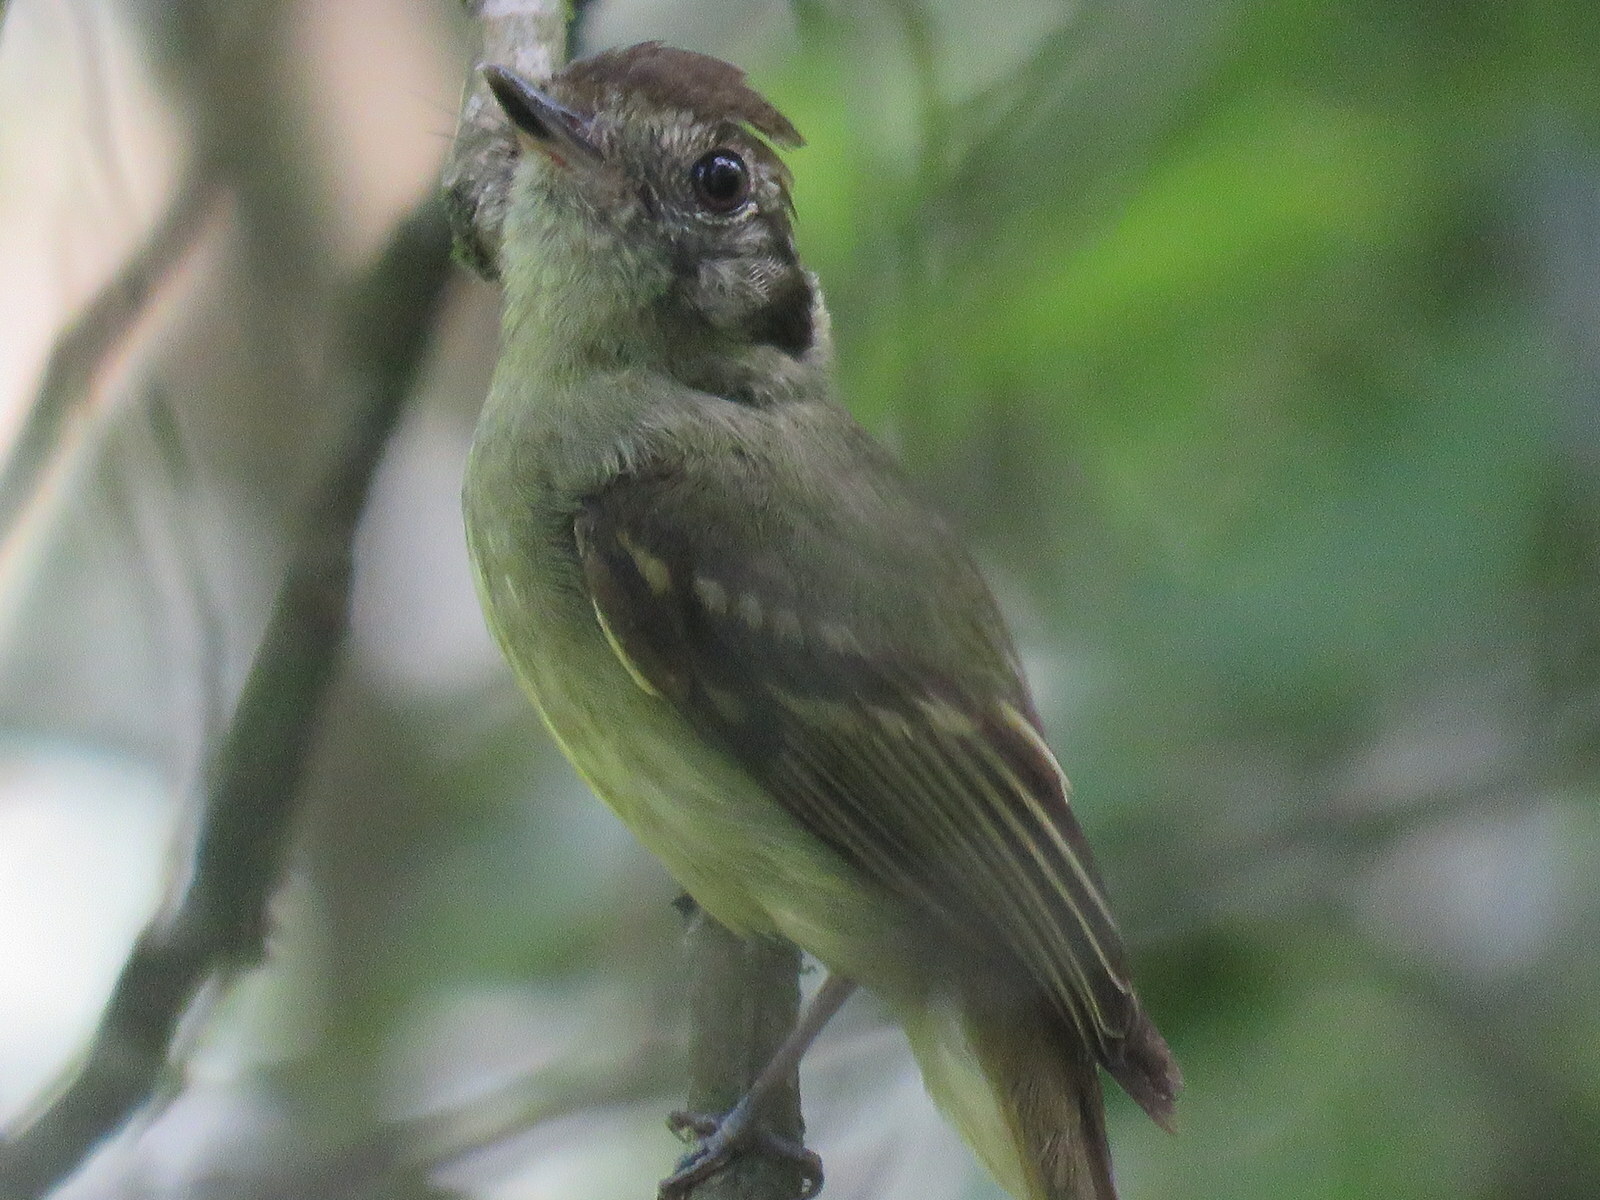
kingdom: Animalia
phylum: Chordata
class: Aves
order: Passeriformes
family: Tyrannidae
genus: Leptopogon
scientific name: Leptopogon amaurocephalus
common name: Sepia-capped flycatcher
